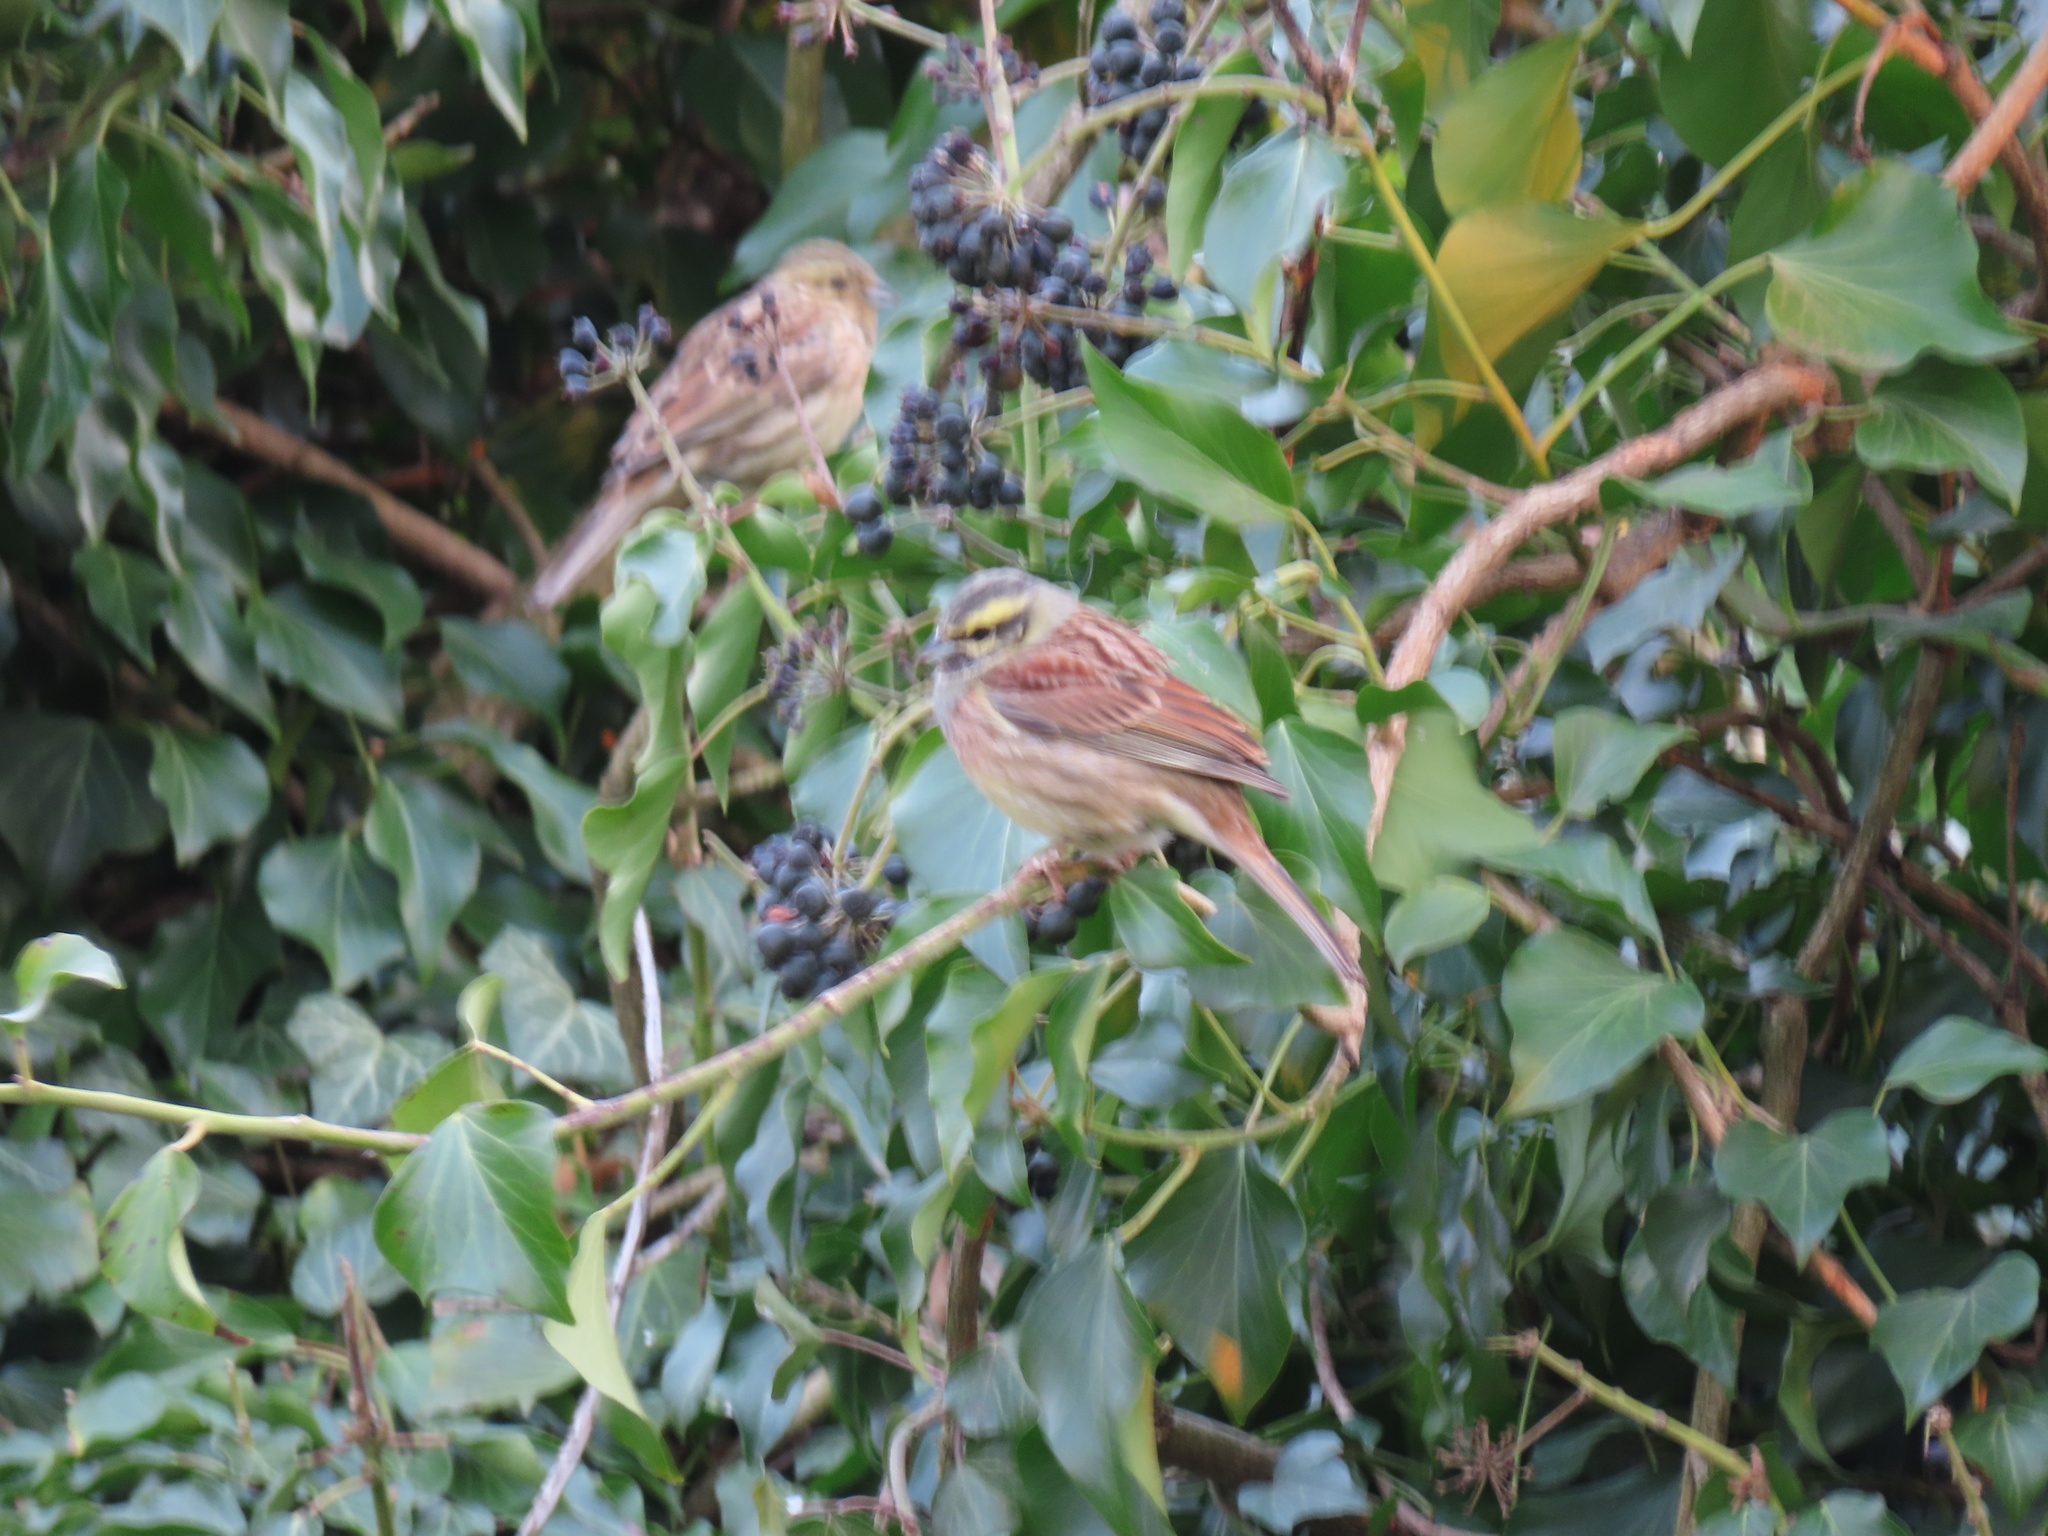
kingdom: Animalia
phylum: Chordata
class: Aves
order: Passeriformes
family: Emberizidae
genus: Emberiza
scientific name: Emberiza cirlus
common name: Cirl bunting
